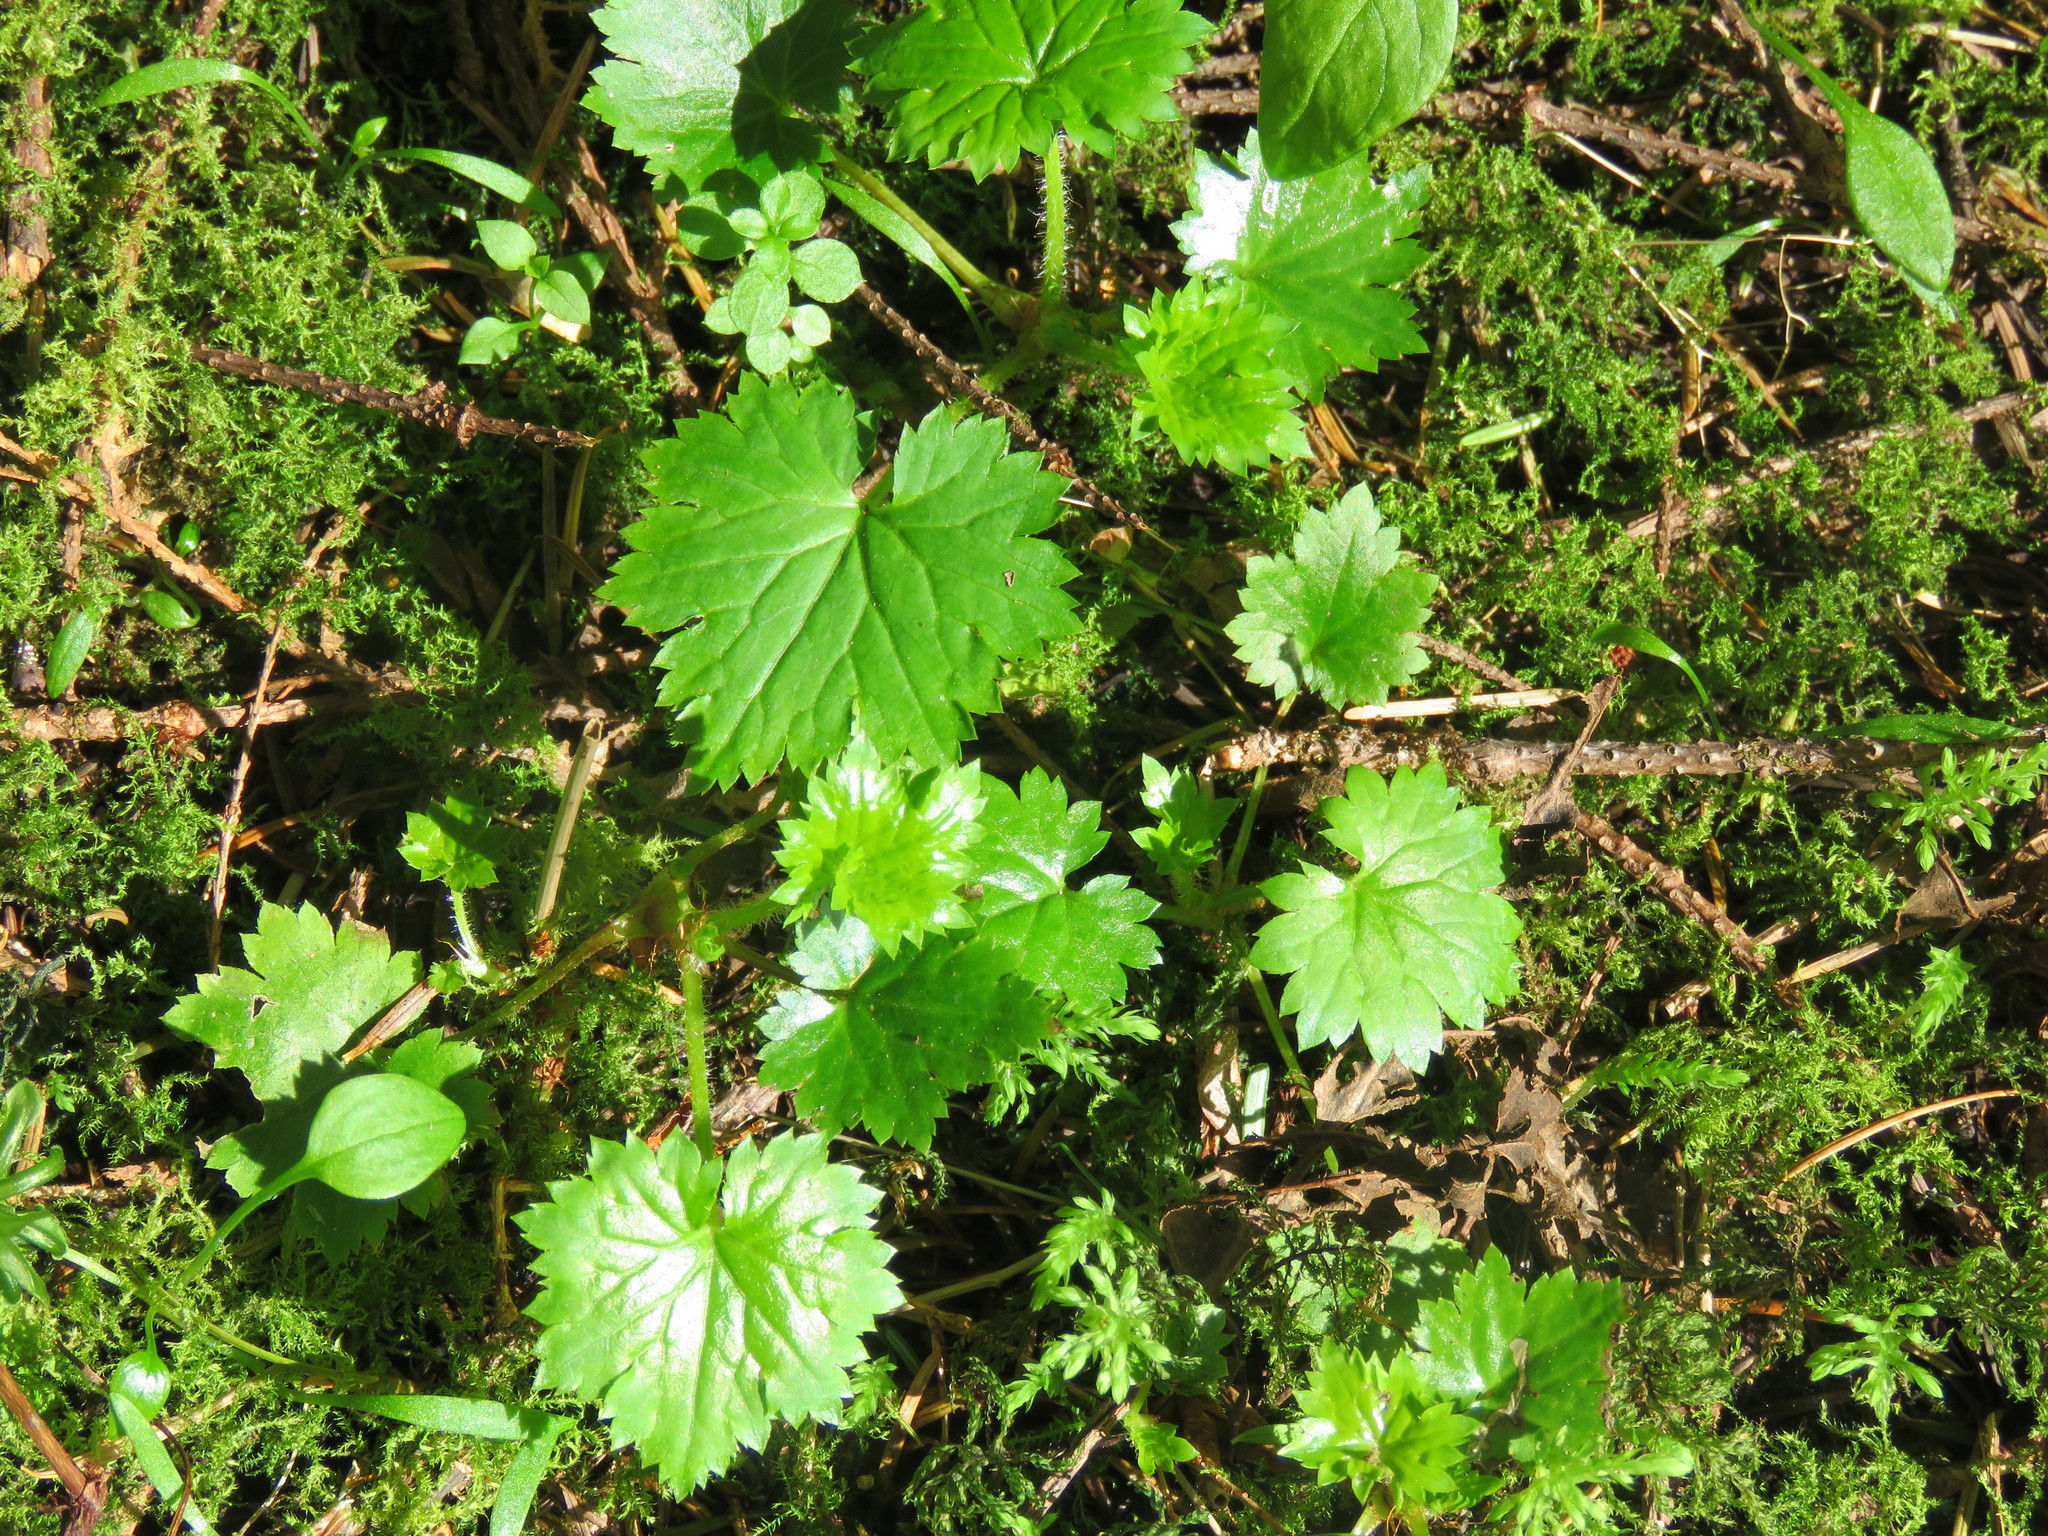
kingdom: Plantae
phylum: Tracheophyta
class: Magnoliopsida
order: Saxifragales
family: Saxifragaceae
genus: Boykinia
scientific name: Boykinia occidentalis
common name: Coast boykinia
